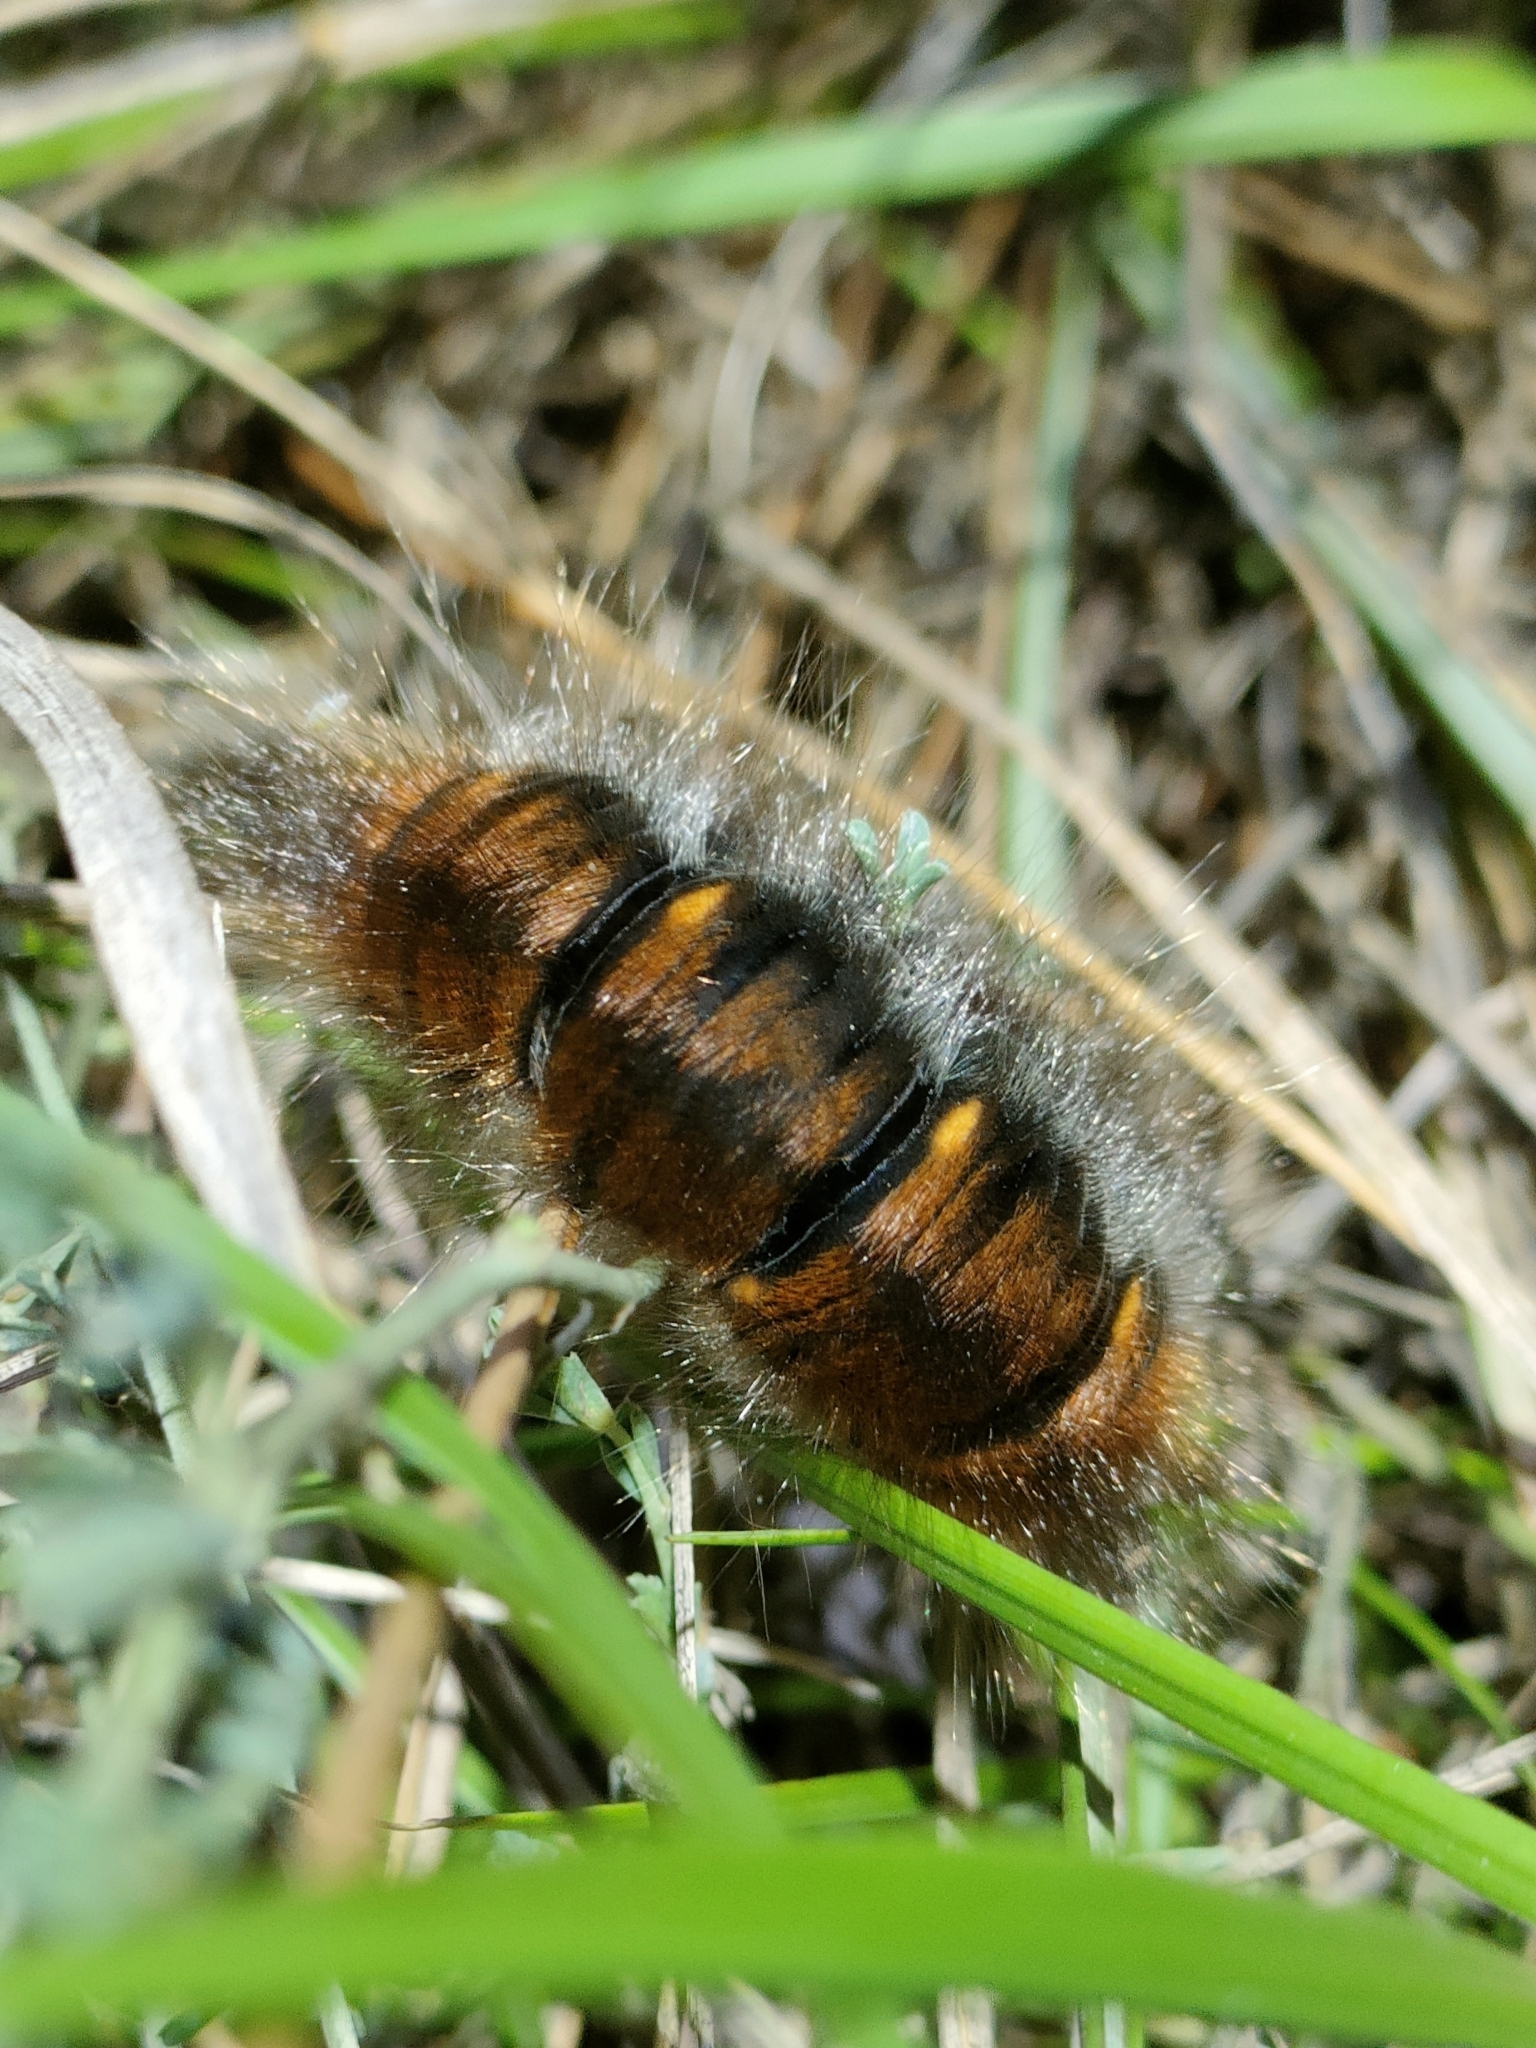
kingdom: Animalia
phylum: Arthropoda
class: Insecta
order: Lepidoptera
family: Lasiocampidae
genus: Macrothylacia
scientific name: Macrothylacia rubi
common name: Fox moth
